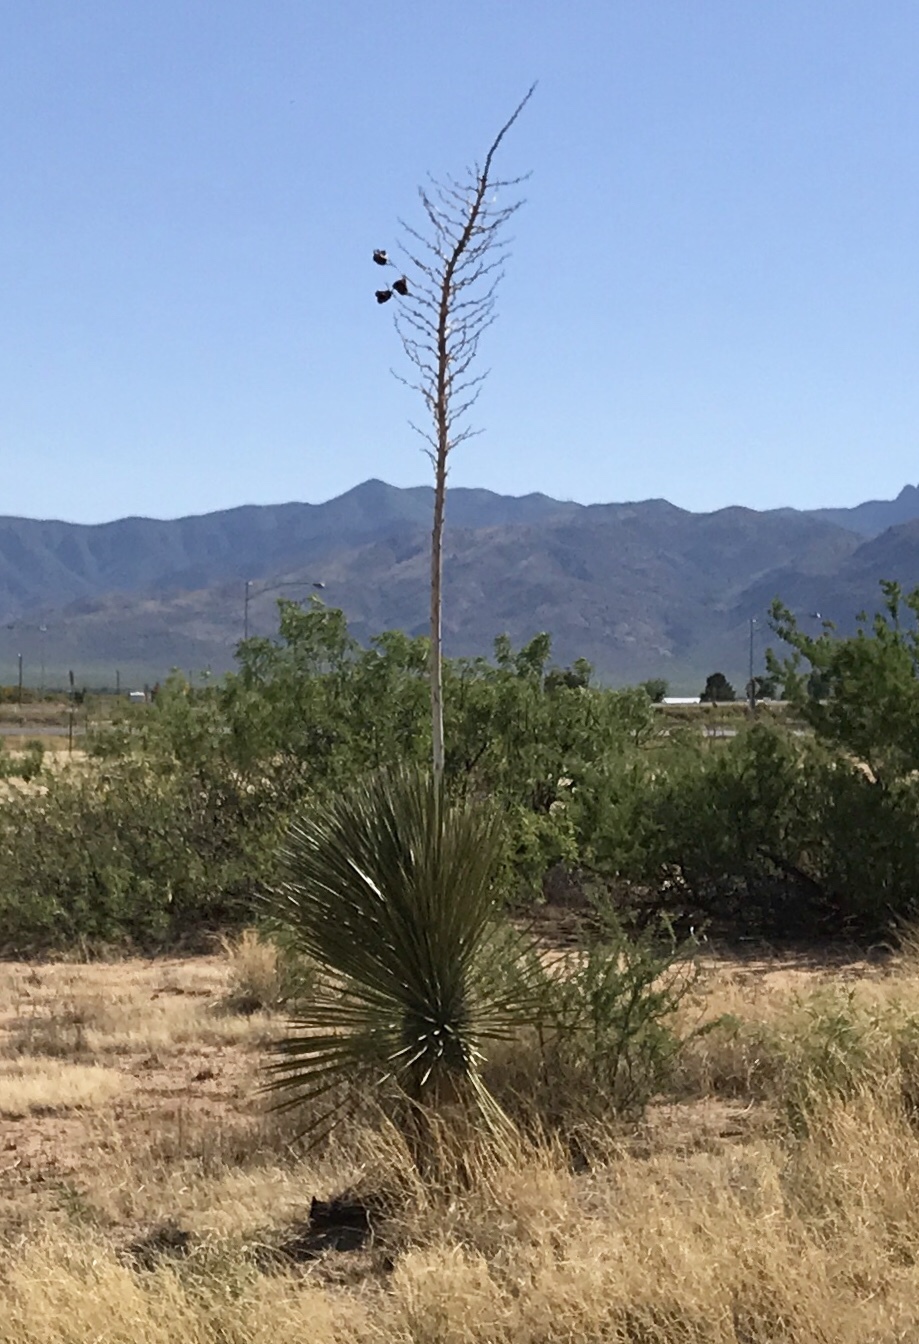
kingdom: Plantae
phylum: Tracheophyta
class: Liliopsida
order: Asparagales
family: Asparagaceae
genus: Yucca
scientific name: Yucca elata
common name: Palmella
